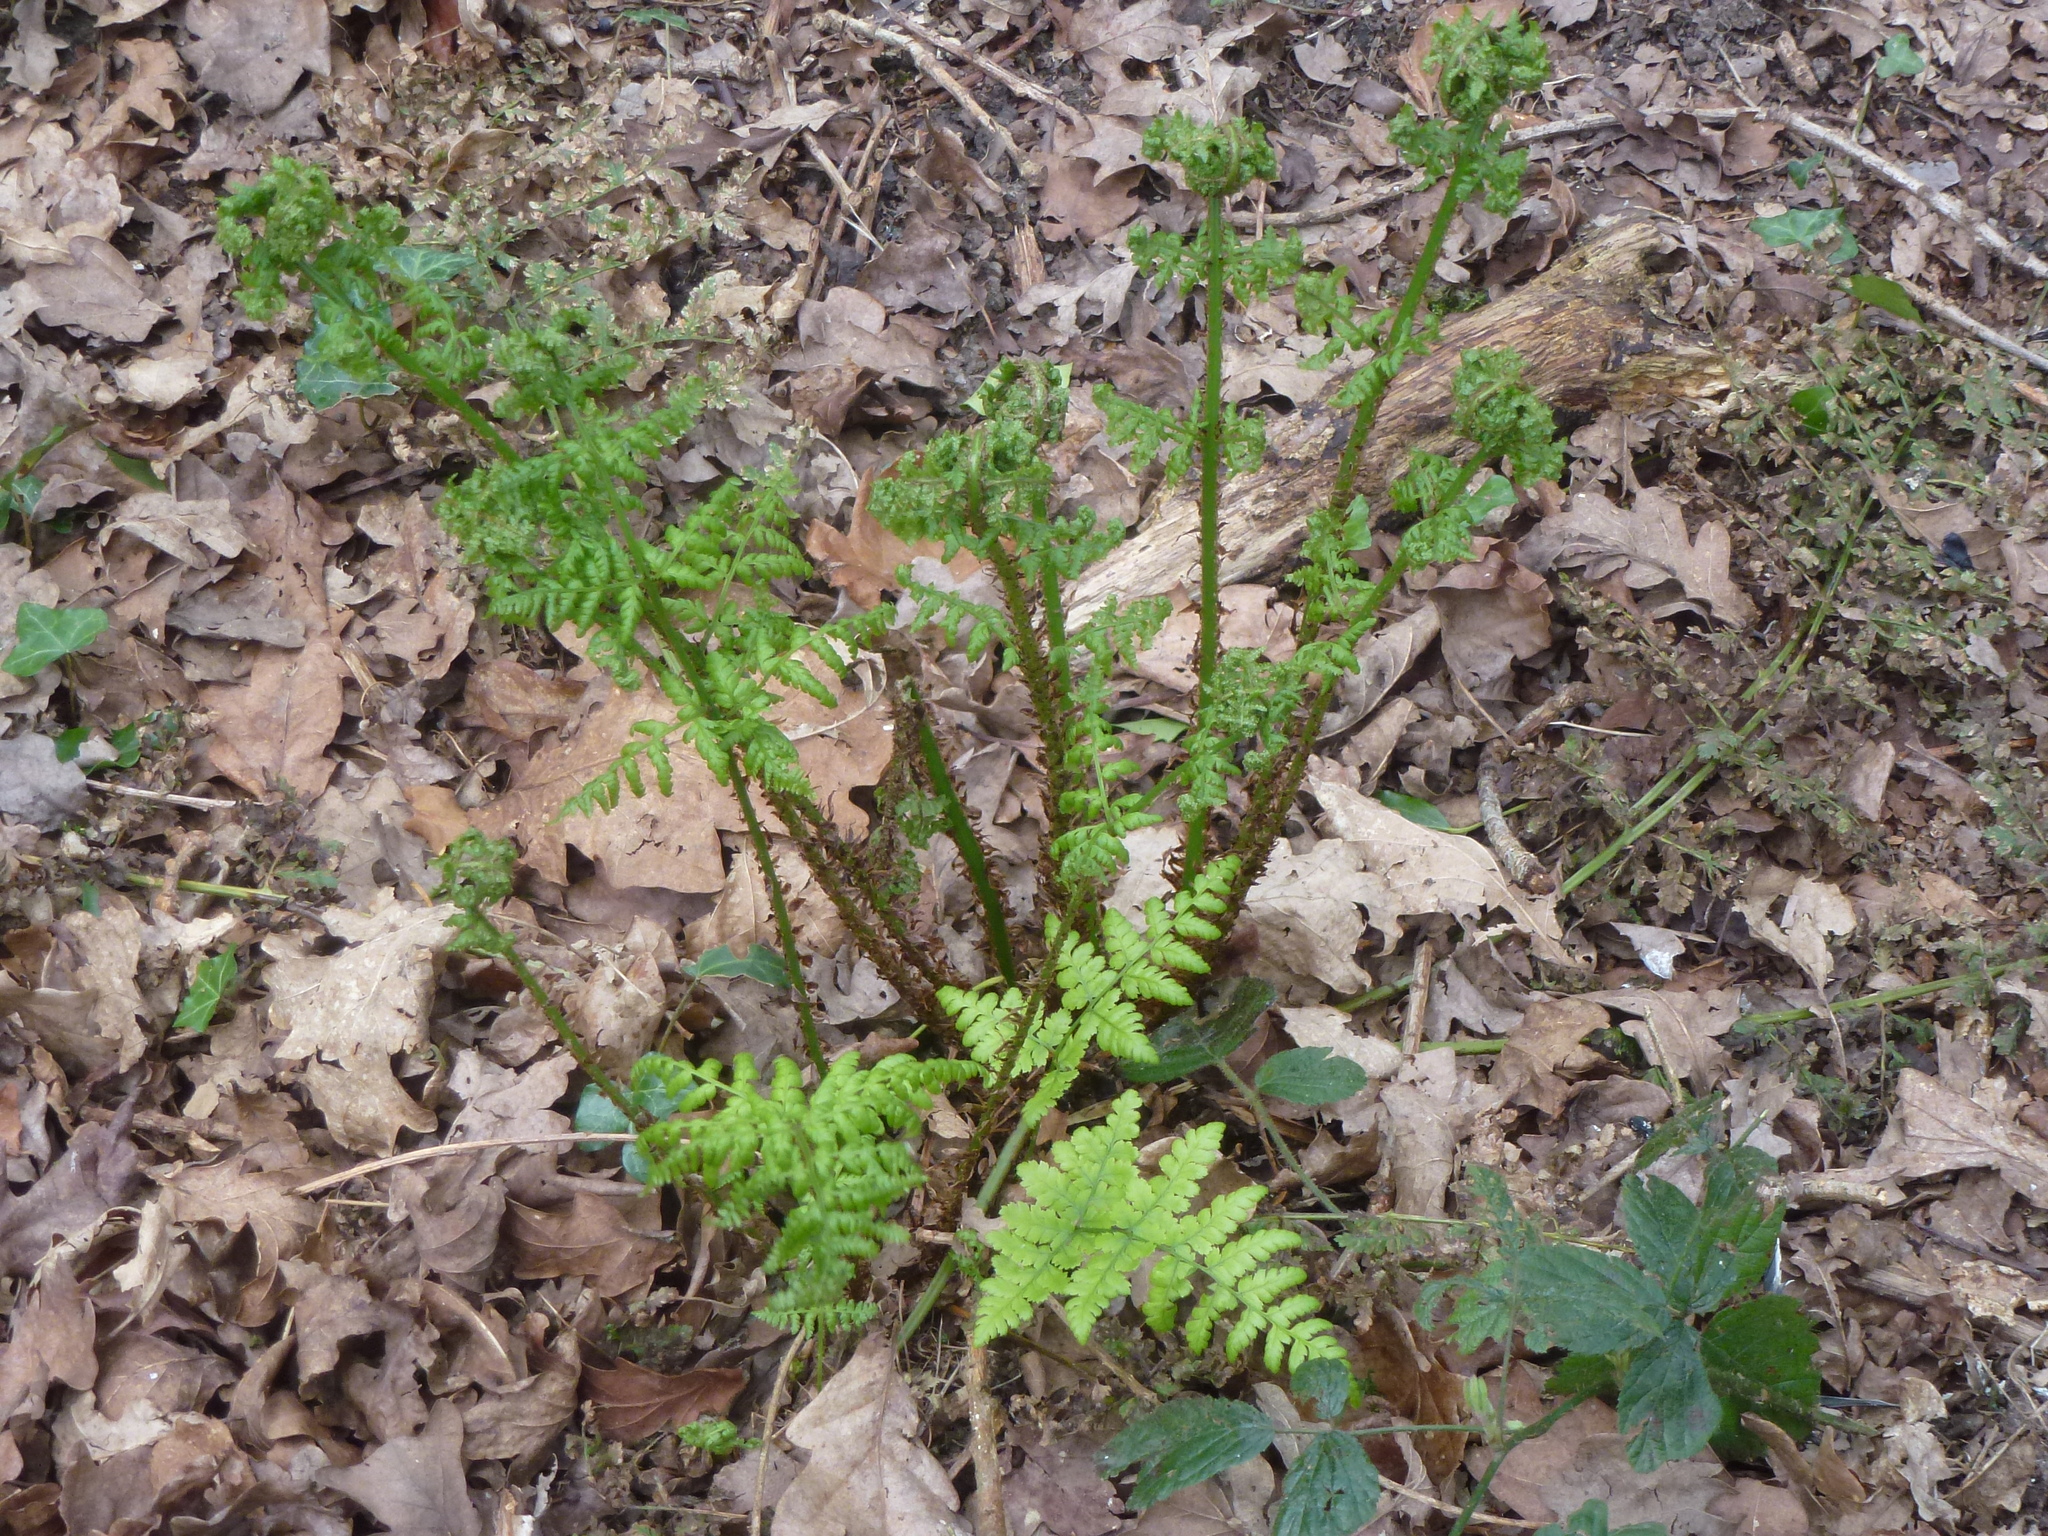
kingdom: Plantae
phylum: Tracheophyta
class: Polypodiopsida
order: Polypodiales
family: Dryopteridaceae
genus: Dryopteris
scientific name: Dryopteris dilatata
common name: Broad buckler-fern
